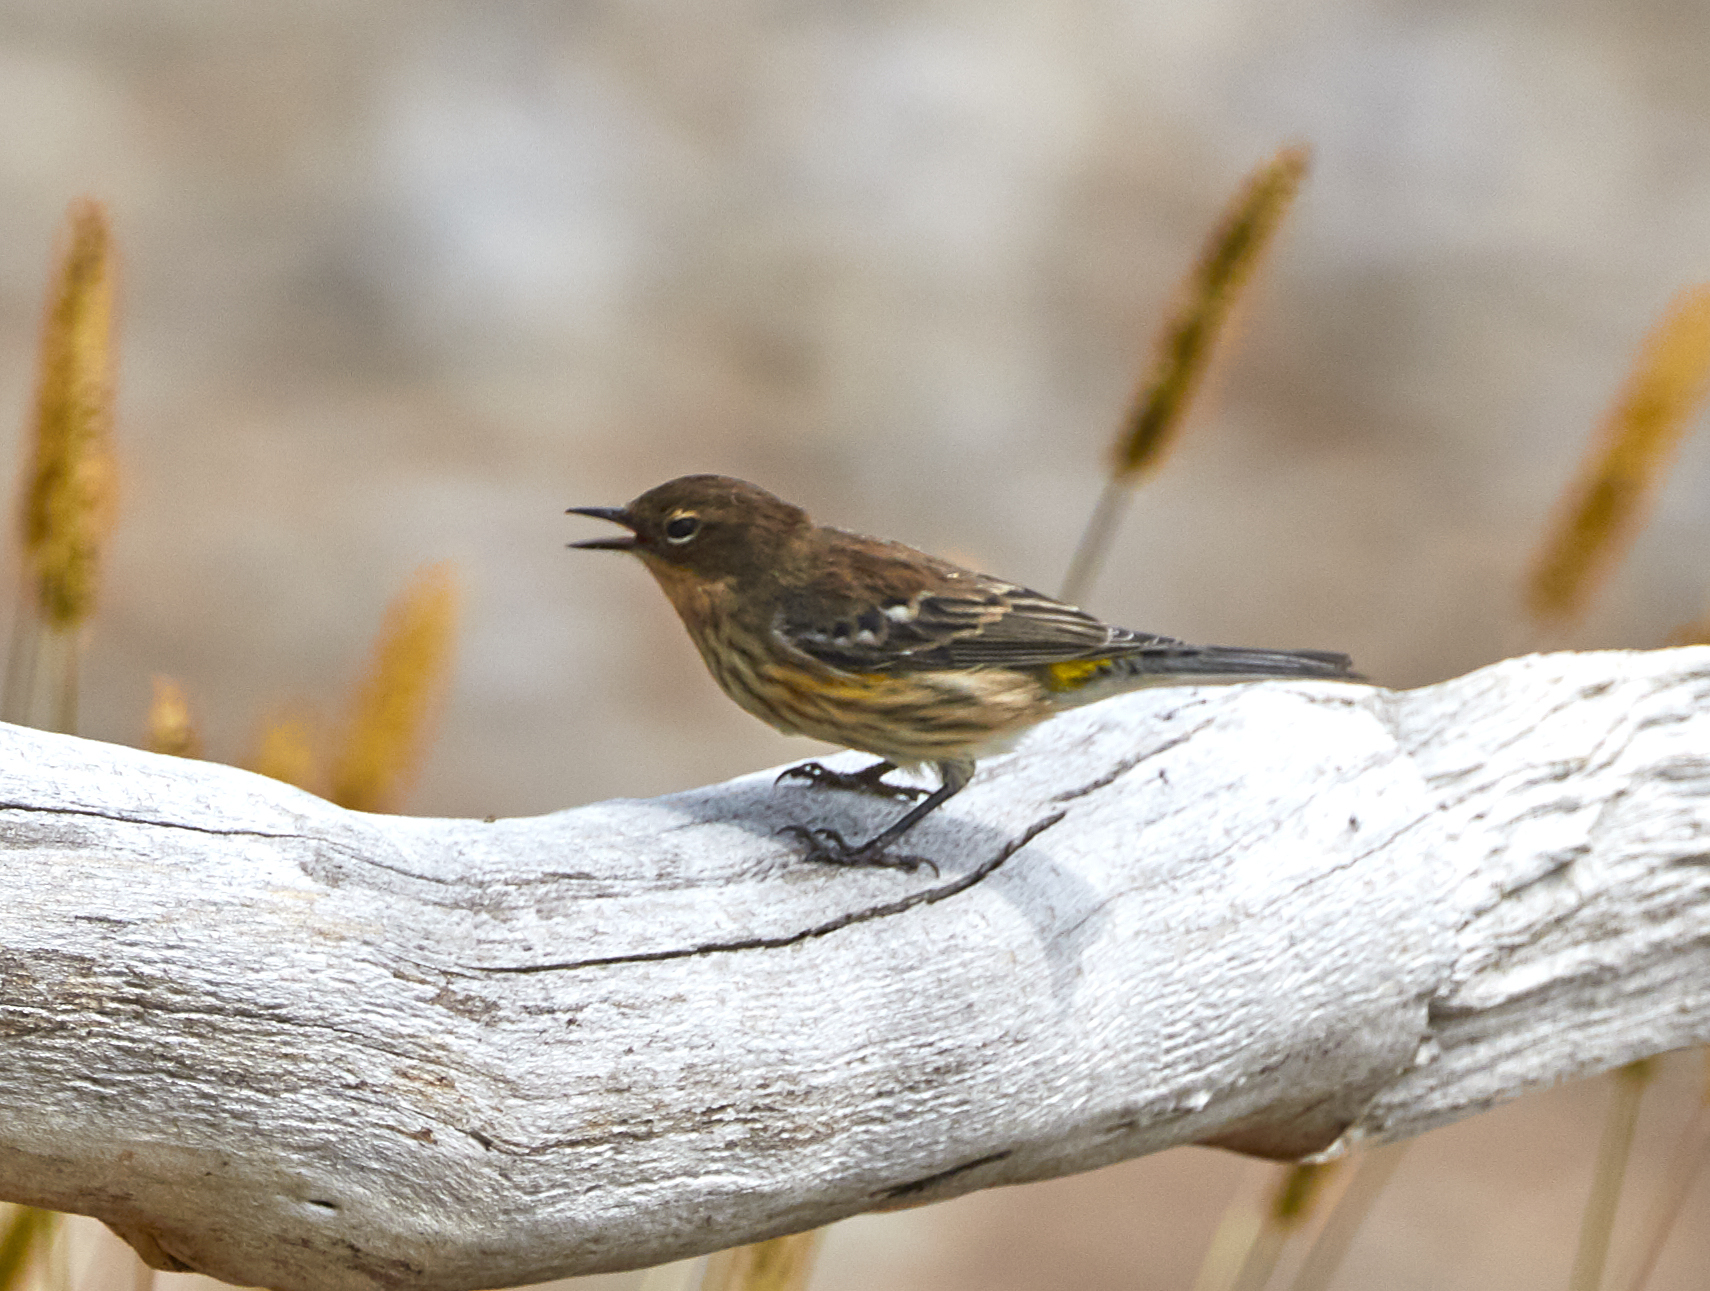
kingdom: Animalia
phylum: Chordata
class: Aves
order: Passeriformes
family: Parulidae
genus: Setophaga
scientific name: Setophaga coronata
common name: Myrtle warbler
